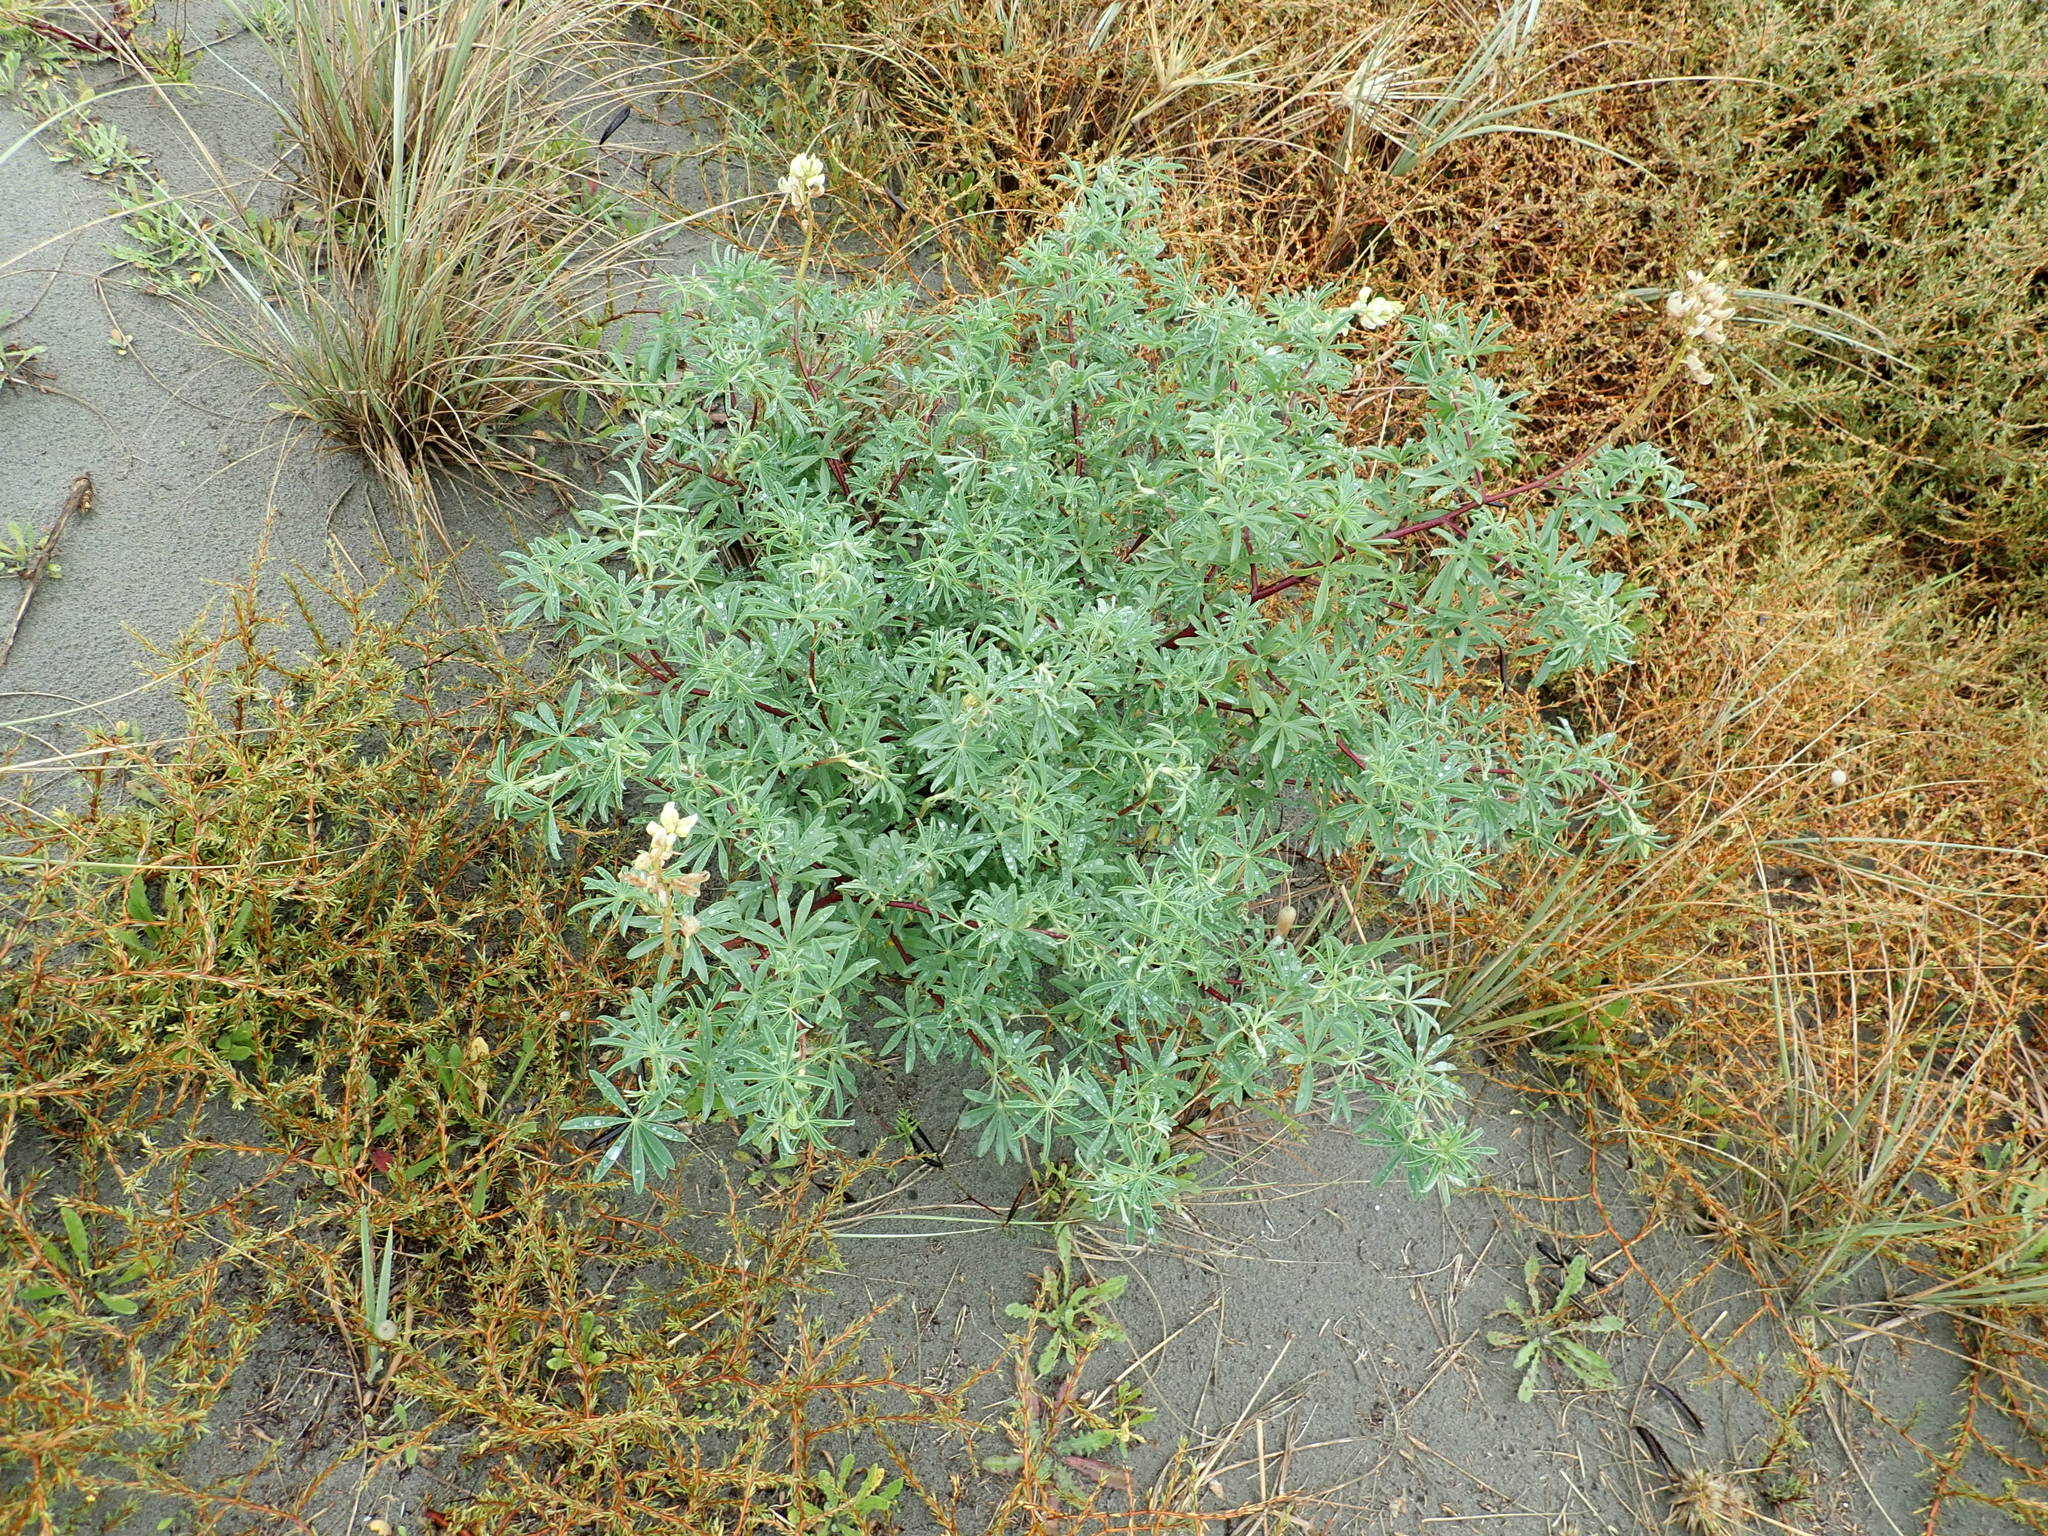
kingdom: Plantae
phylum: Tracheophyta
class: Magnoliopsida
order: Fabales
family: Fabaceae
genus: Lupinus
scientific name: Lupinus arboreus
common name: Yellow bush lupine
